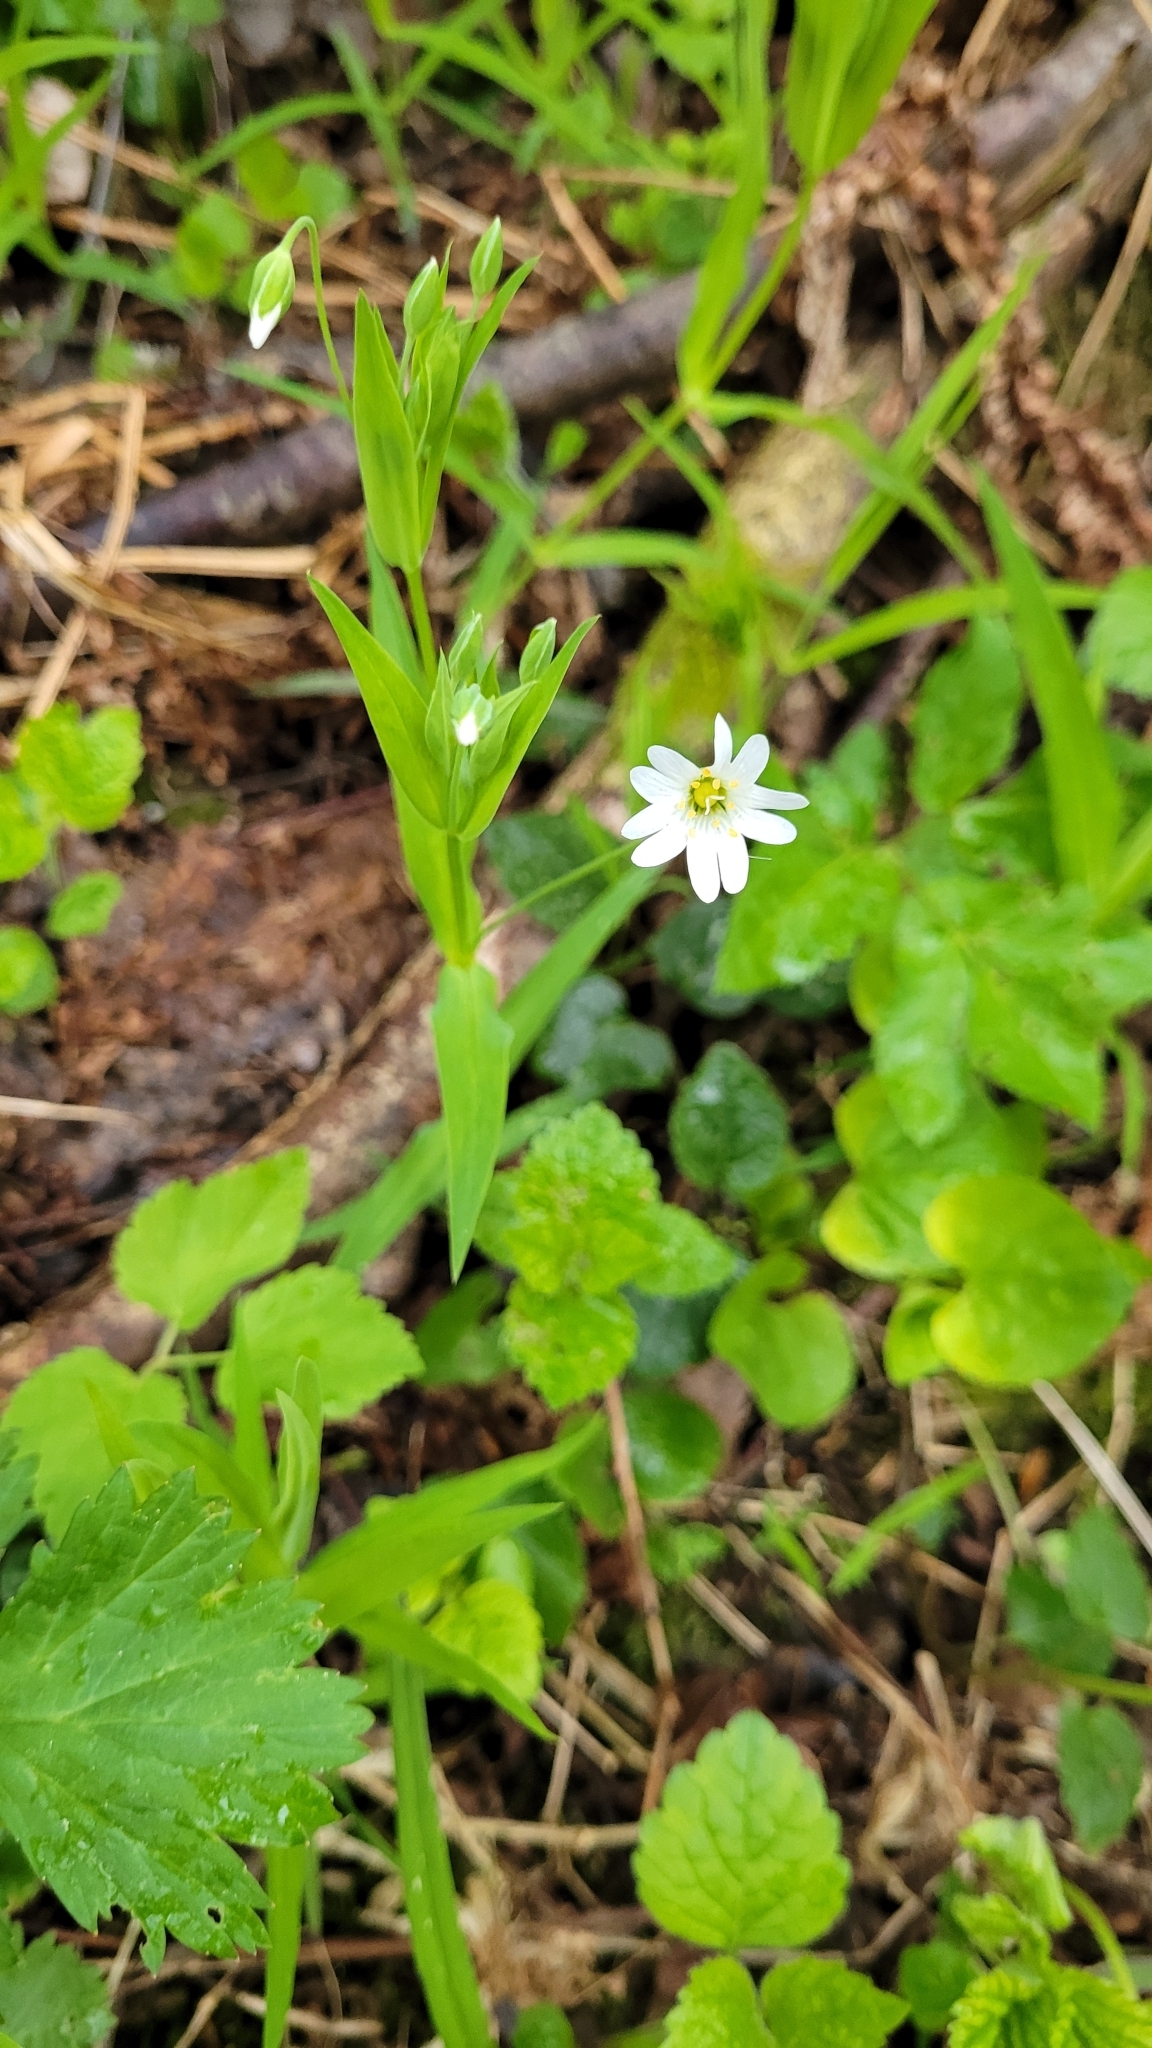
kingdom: Plantae
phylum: Tracheophyta
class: Magnoliopsida
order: Caryophyllales
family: Caryophyllaceae
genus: Rabelera
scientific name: Rabelera holostea
